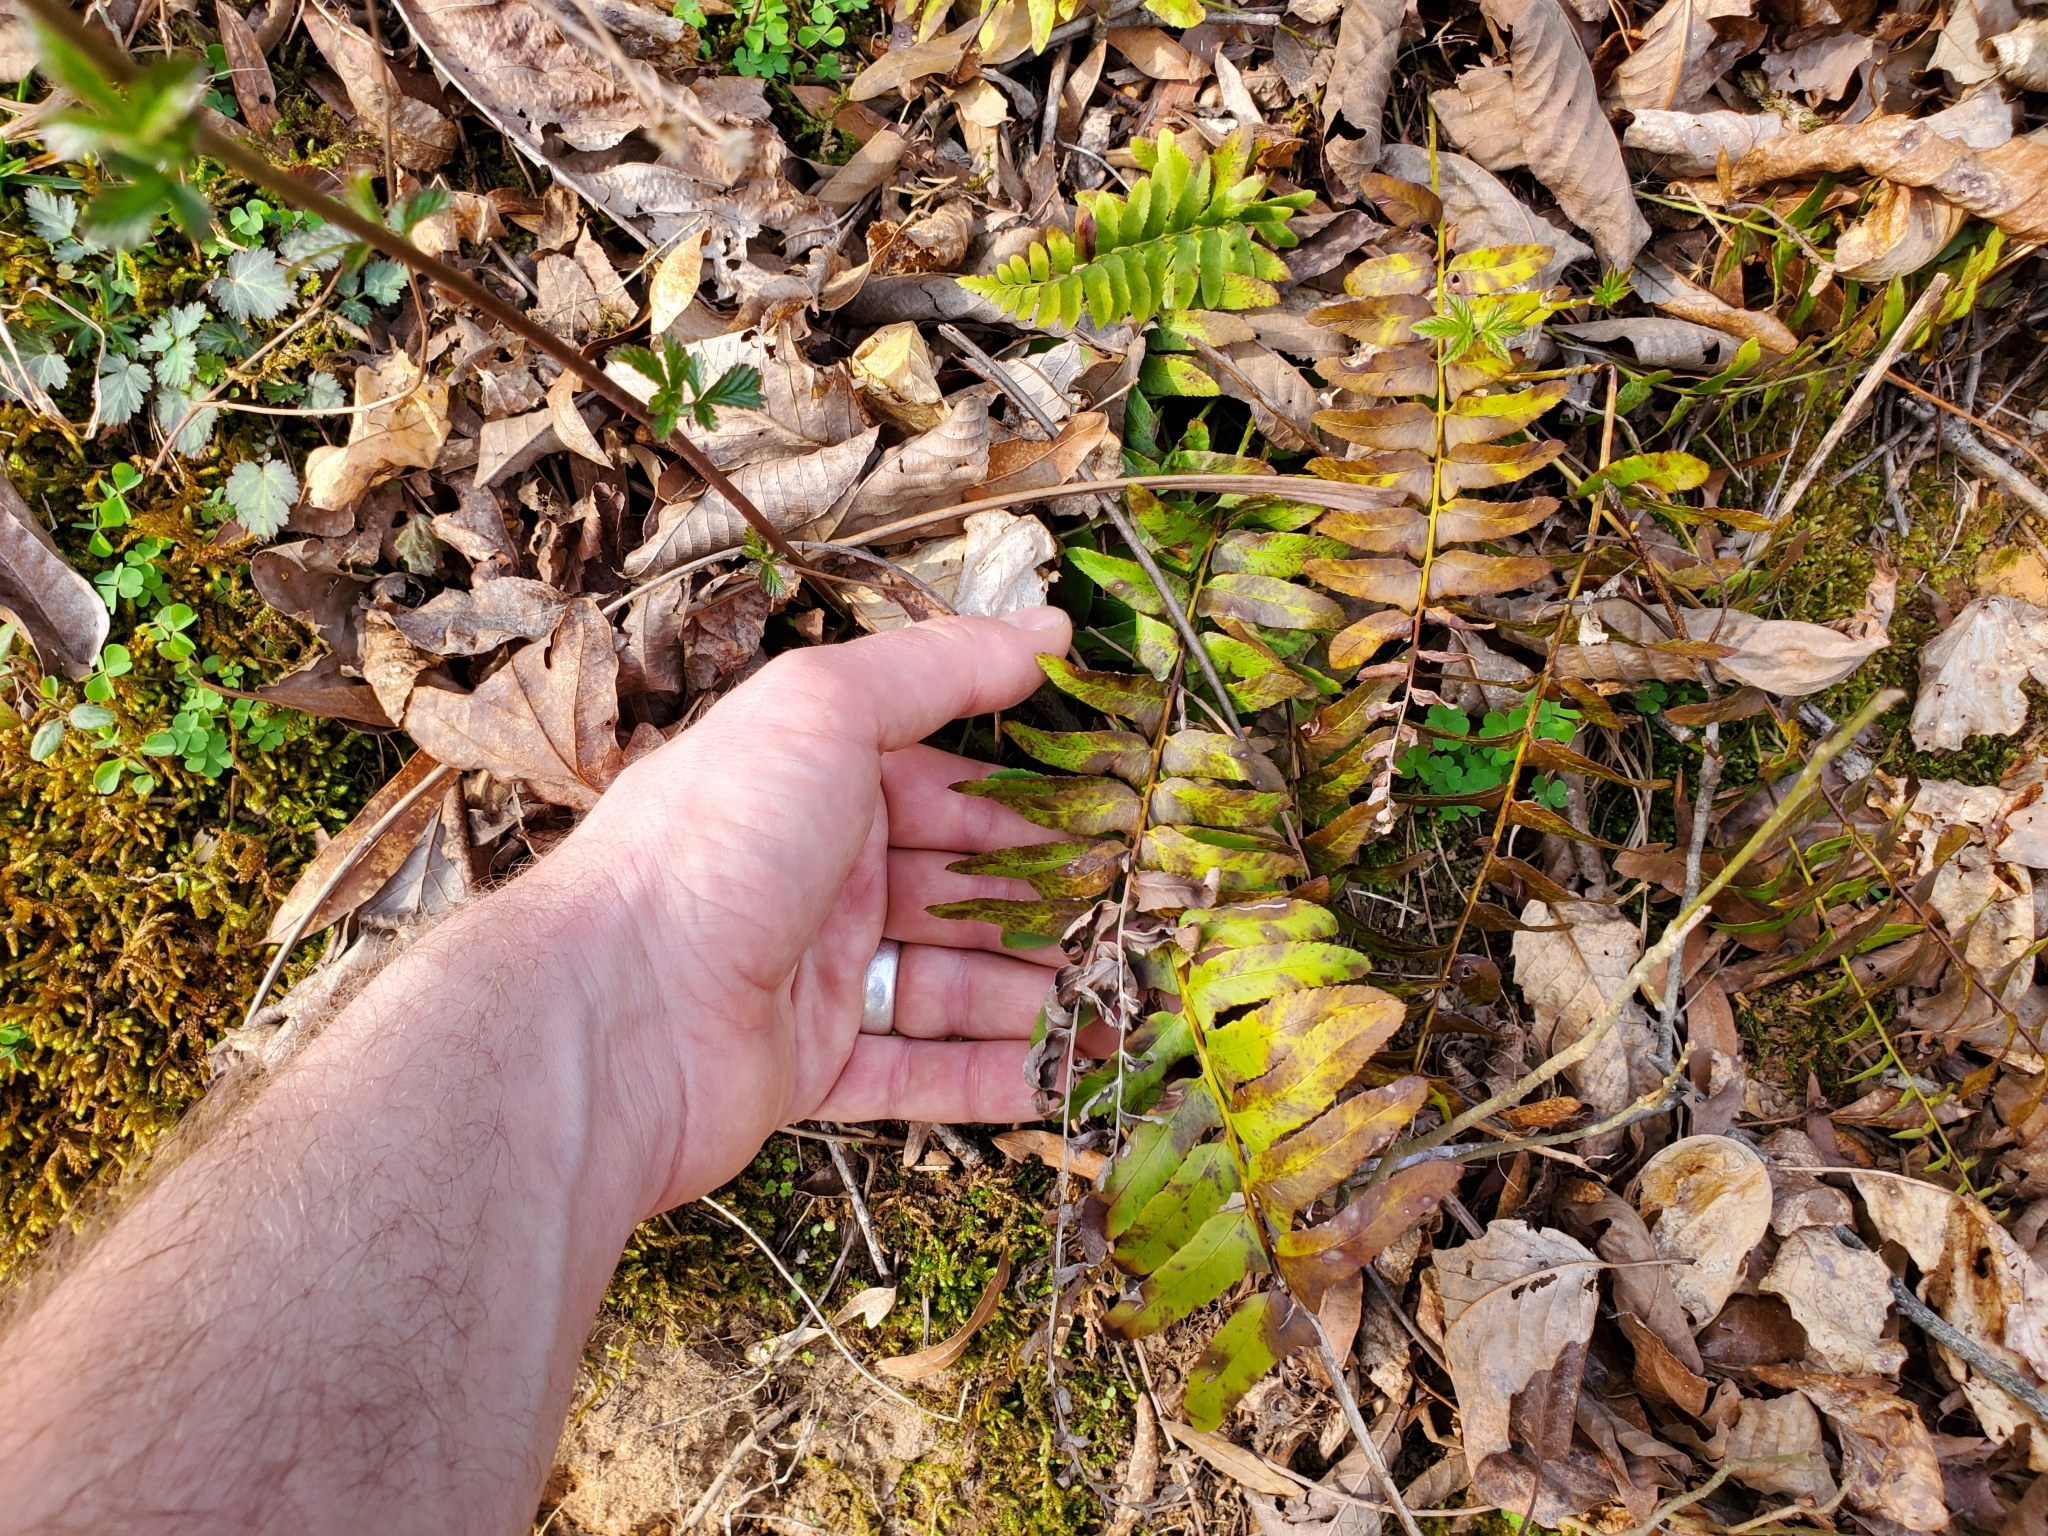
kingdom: Plantae
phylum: Tracheophyta
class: Polypodiopsida
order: Polypodiales
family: Dryopteridaceae
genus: Polystichum
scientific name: Polystichum acrostichoides
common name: Christmas fern
